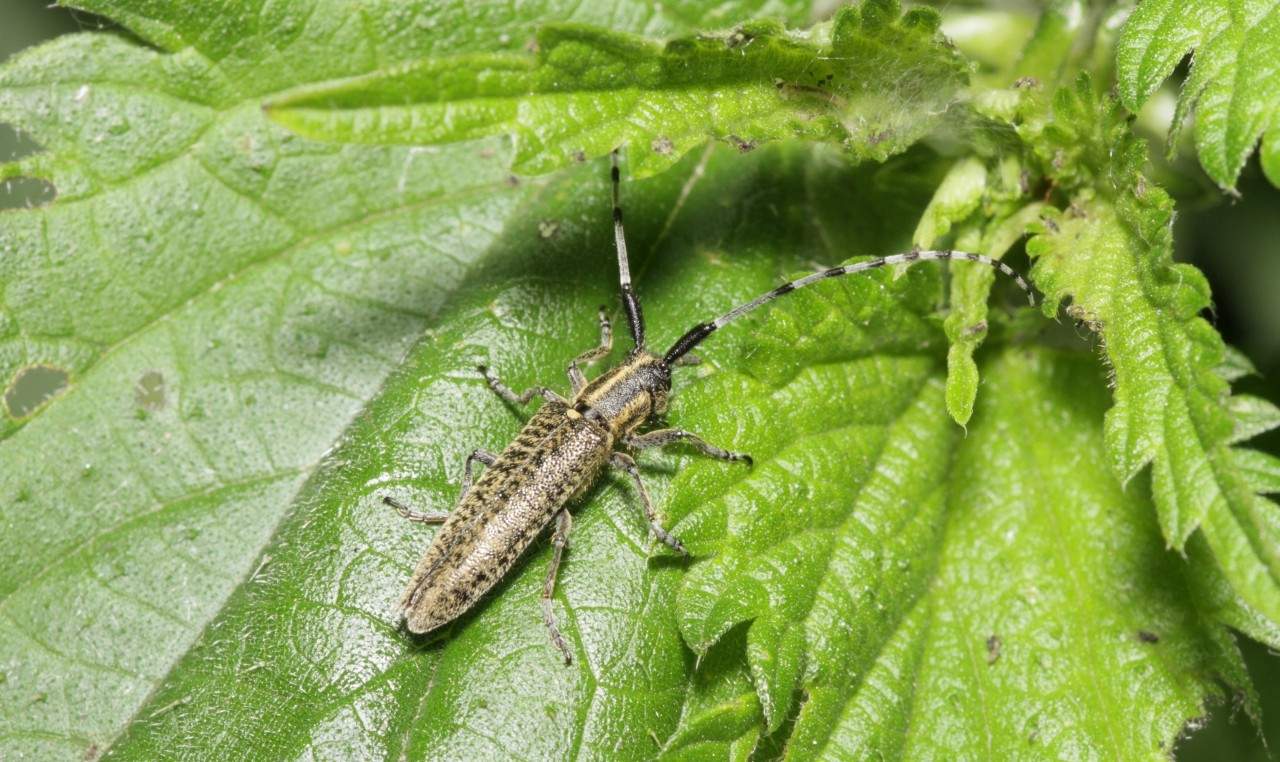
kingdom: Animalia
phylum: Arthropoda
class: Insecta
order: Coleoptera
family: Cerambycidae
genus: Agapanthia
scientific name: Agapanthia villosoviridescens
